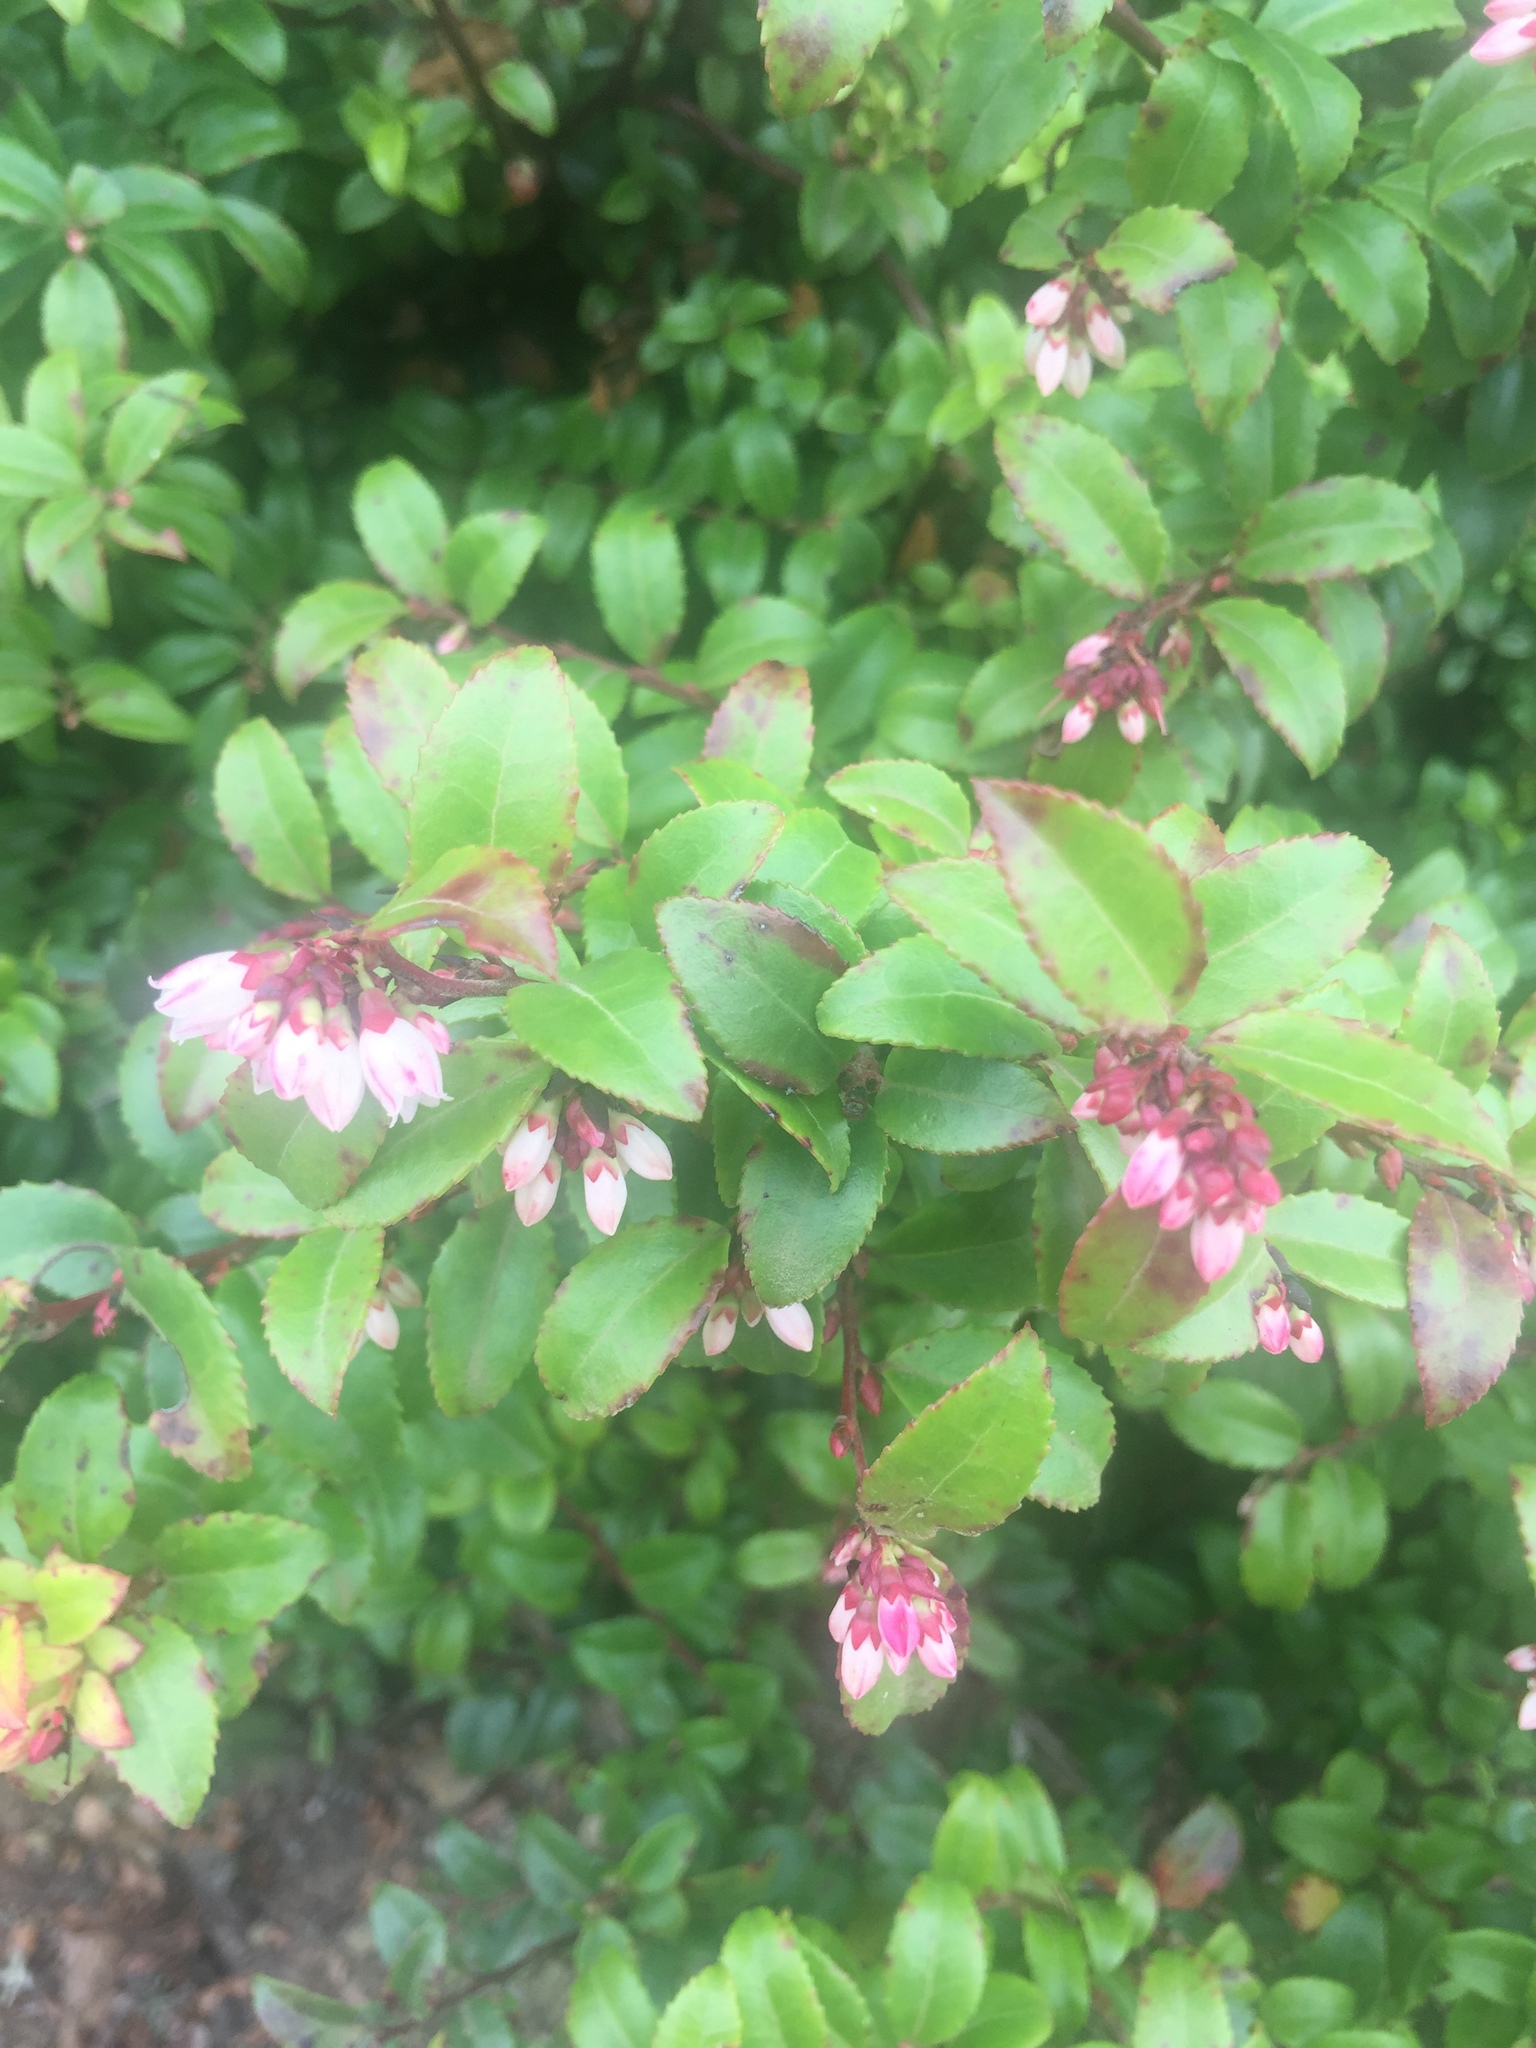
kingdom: Plantae
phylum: Tracheophyta
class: Magnoliopsida
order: Ericales
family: Ericaceae
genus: Vaccinium
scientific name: Vaccinium ovatum
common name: California-huckleberry
